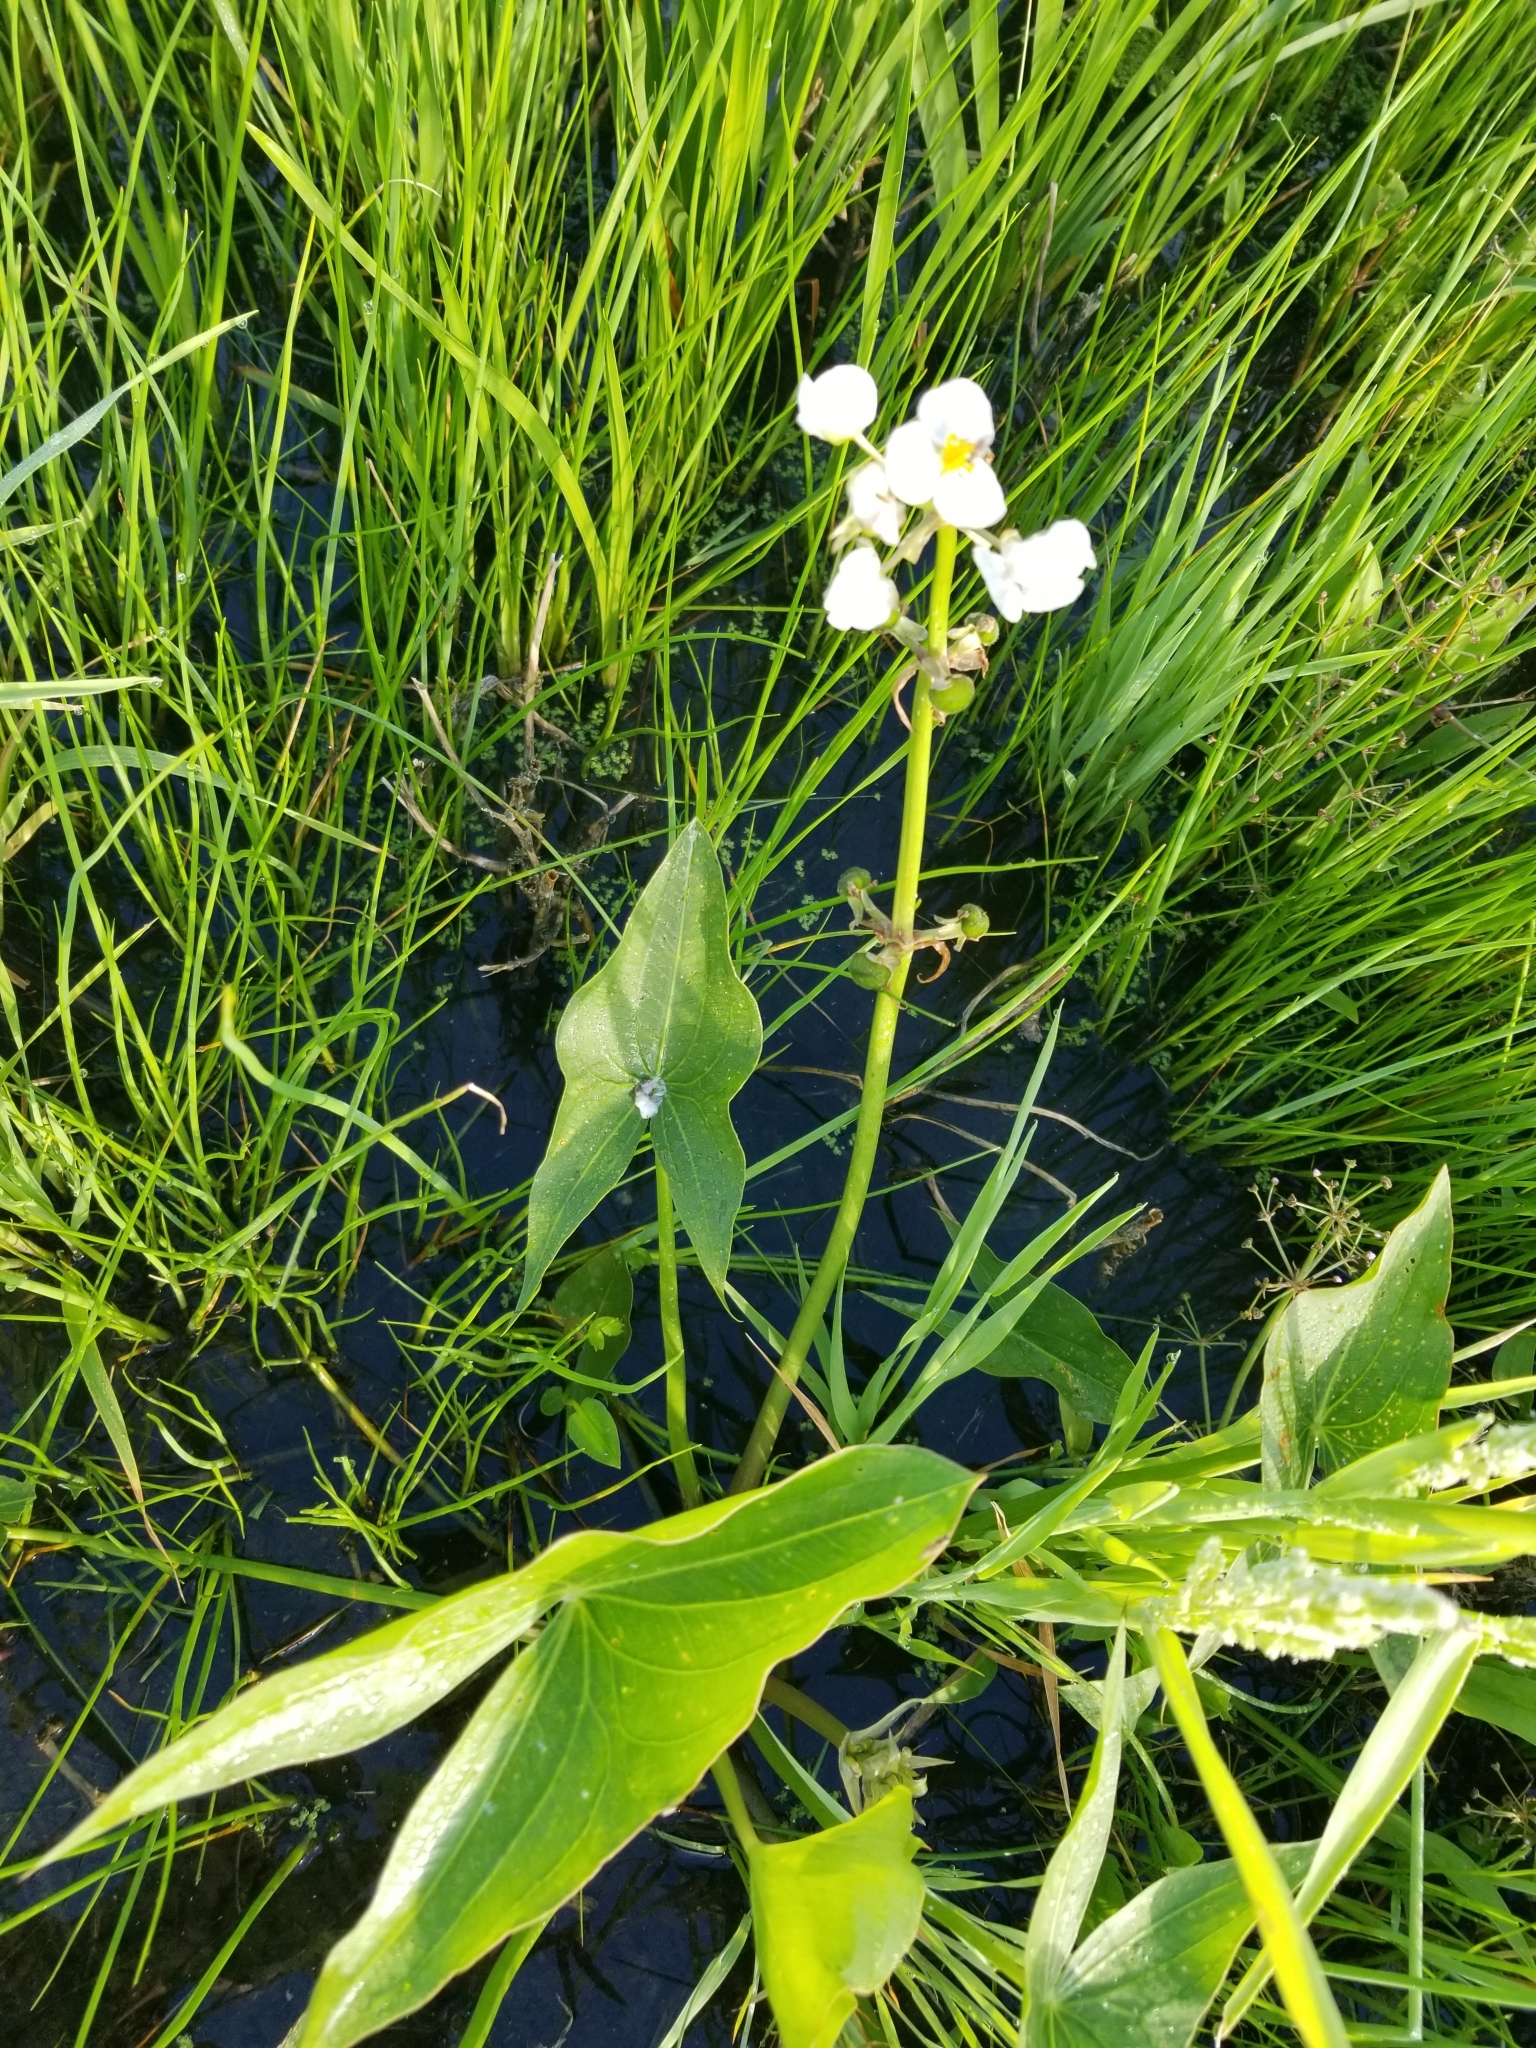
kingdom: Plantae
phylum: Tracheophyta
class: Liliopsida
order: Alismatales
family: Alismataceae
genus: Sagittaria
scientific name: Sagittaria cuneata
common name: Northern arrowhead
